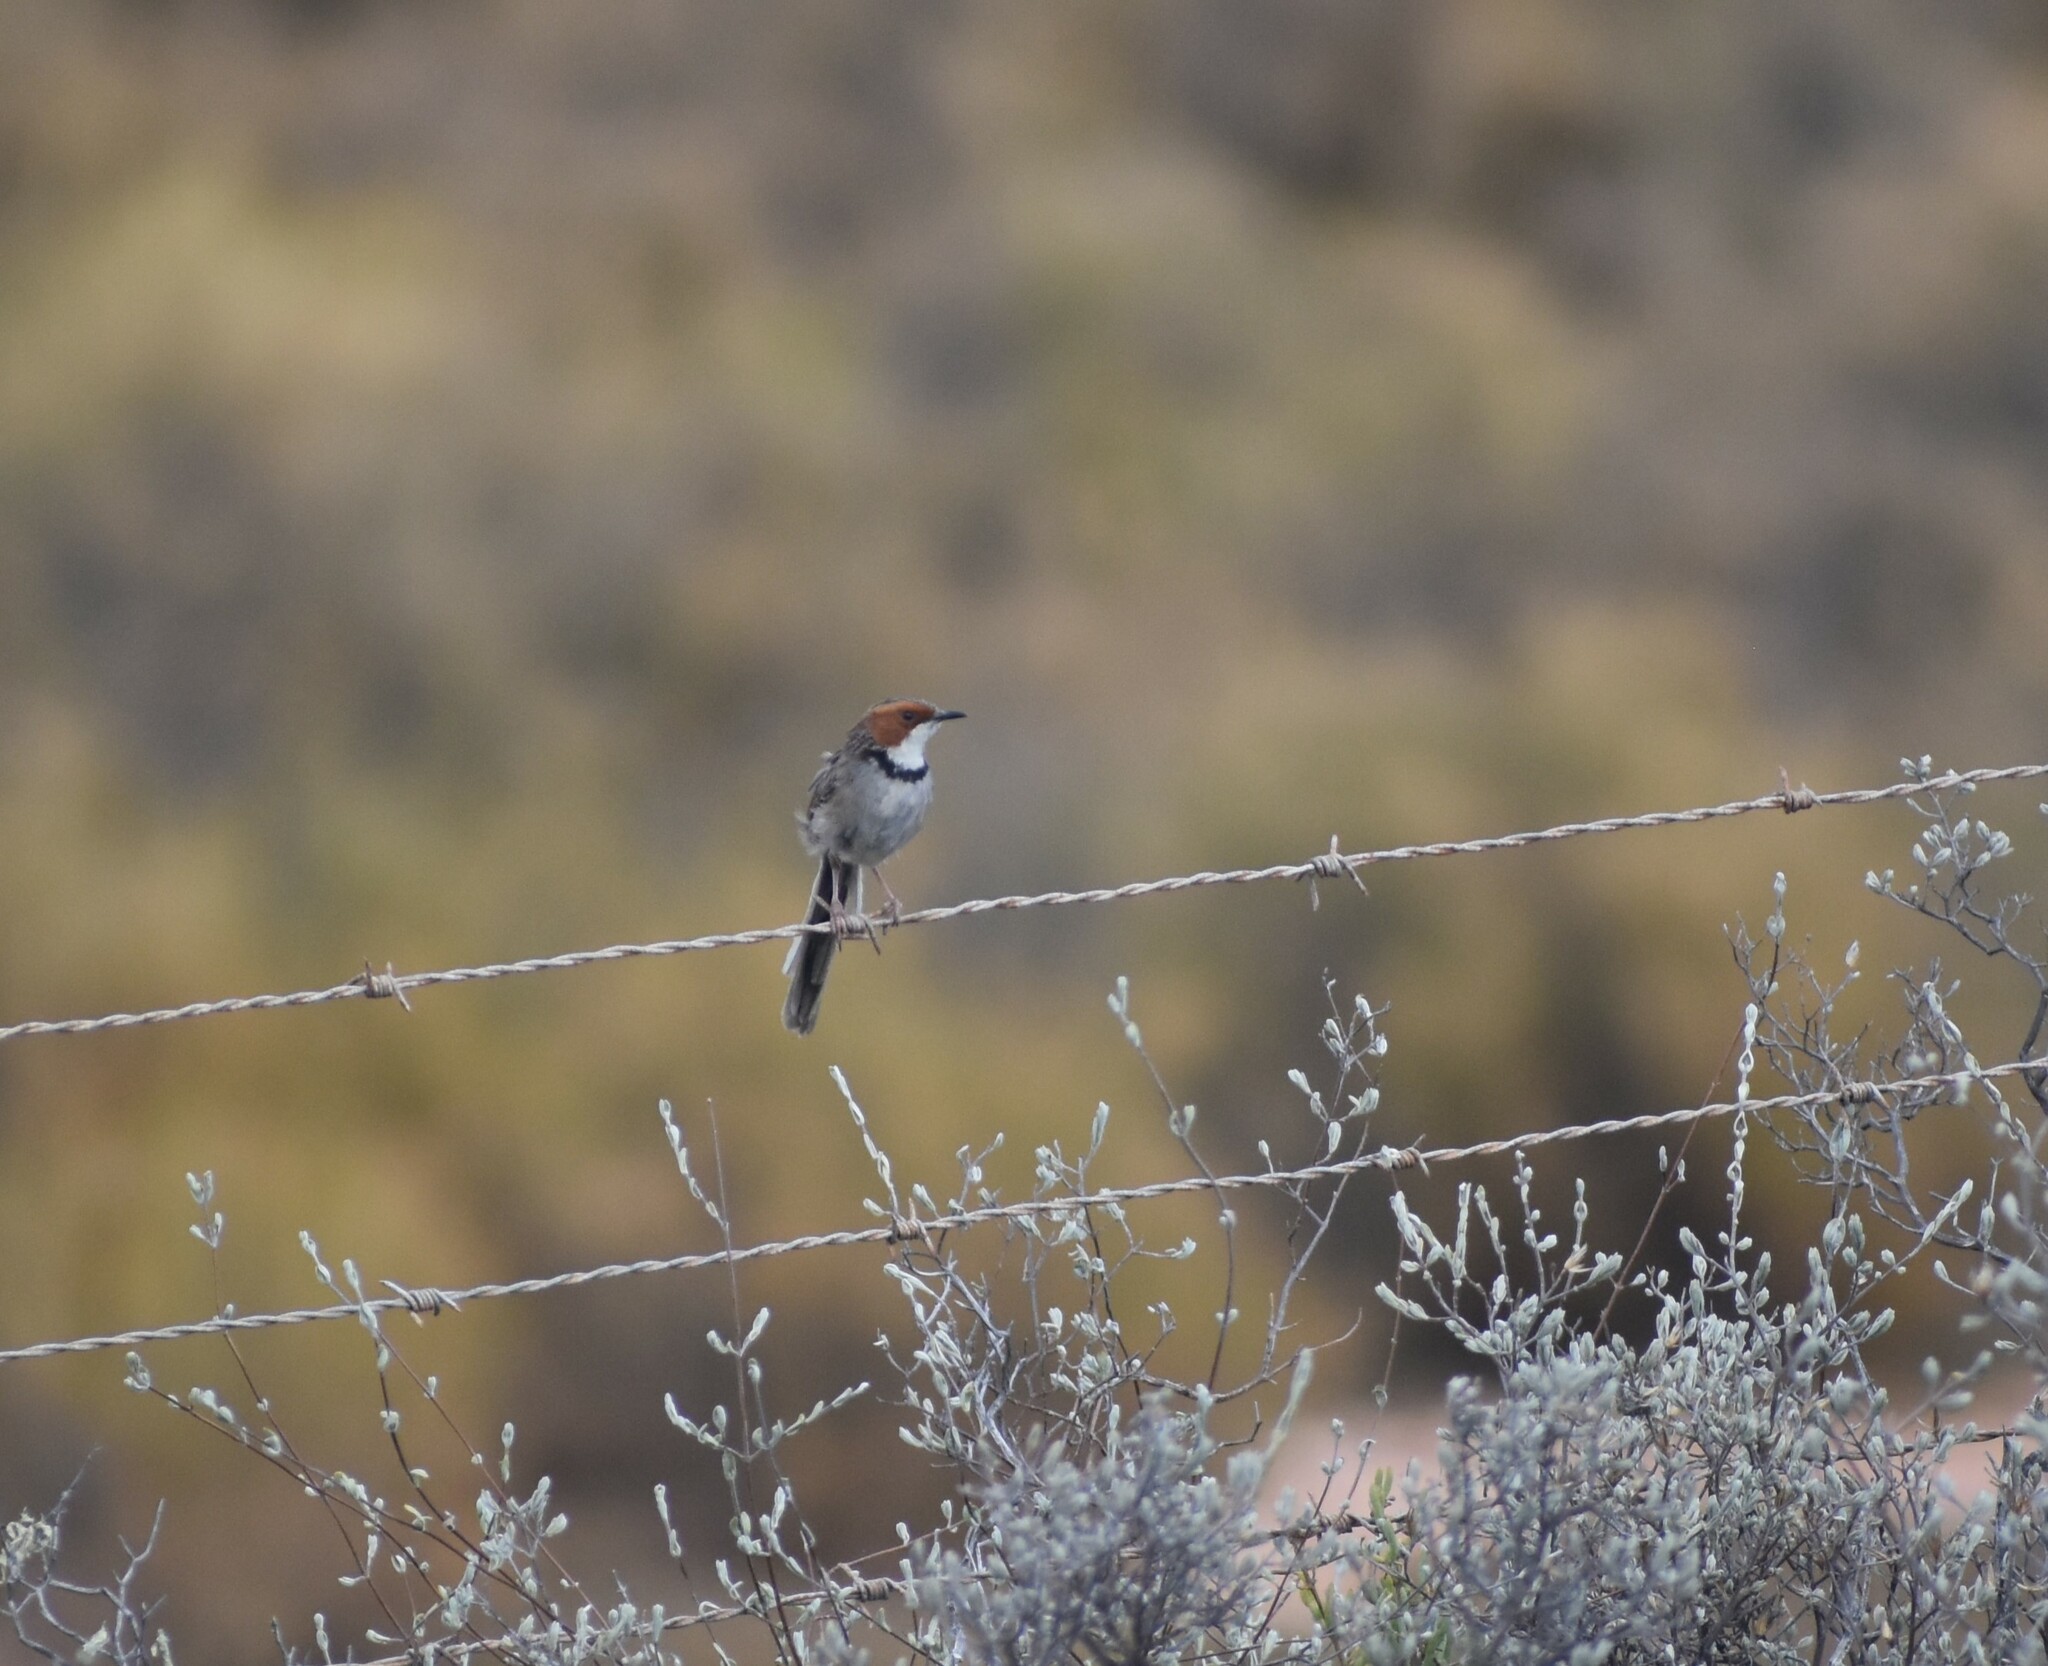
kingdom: Animalia
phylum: Chordata
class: Aves
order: Passeriformes
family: Cisticolidae
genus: Malcorus
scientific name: Malcorus pectoralis
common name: Rufous-eared warbler
